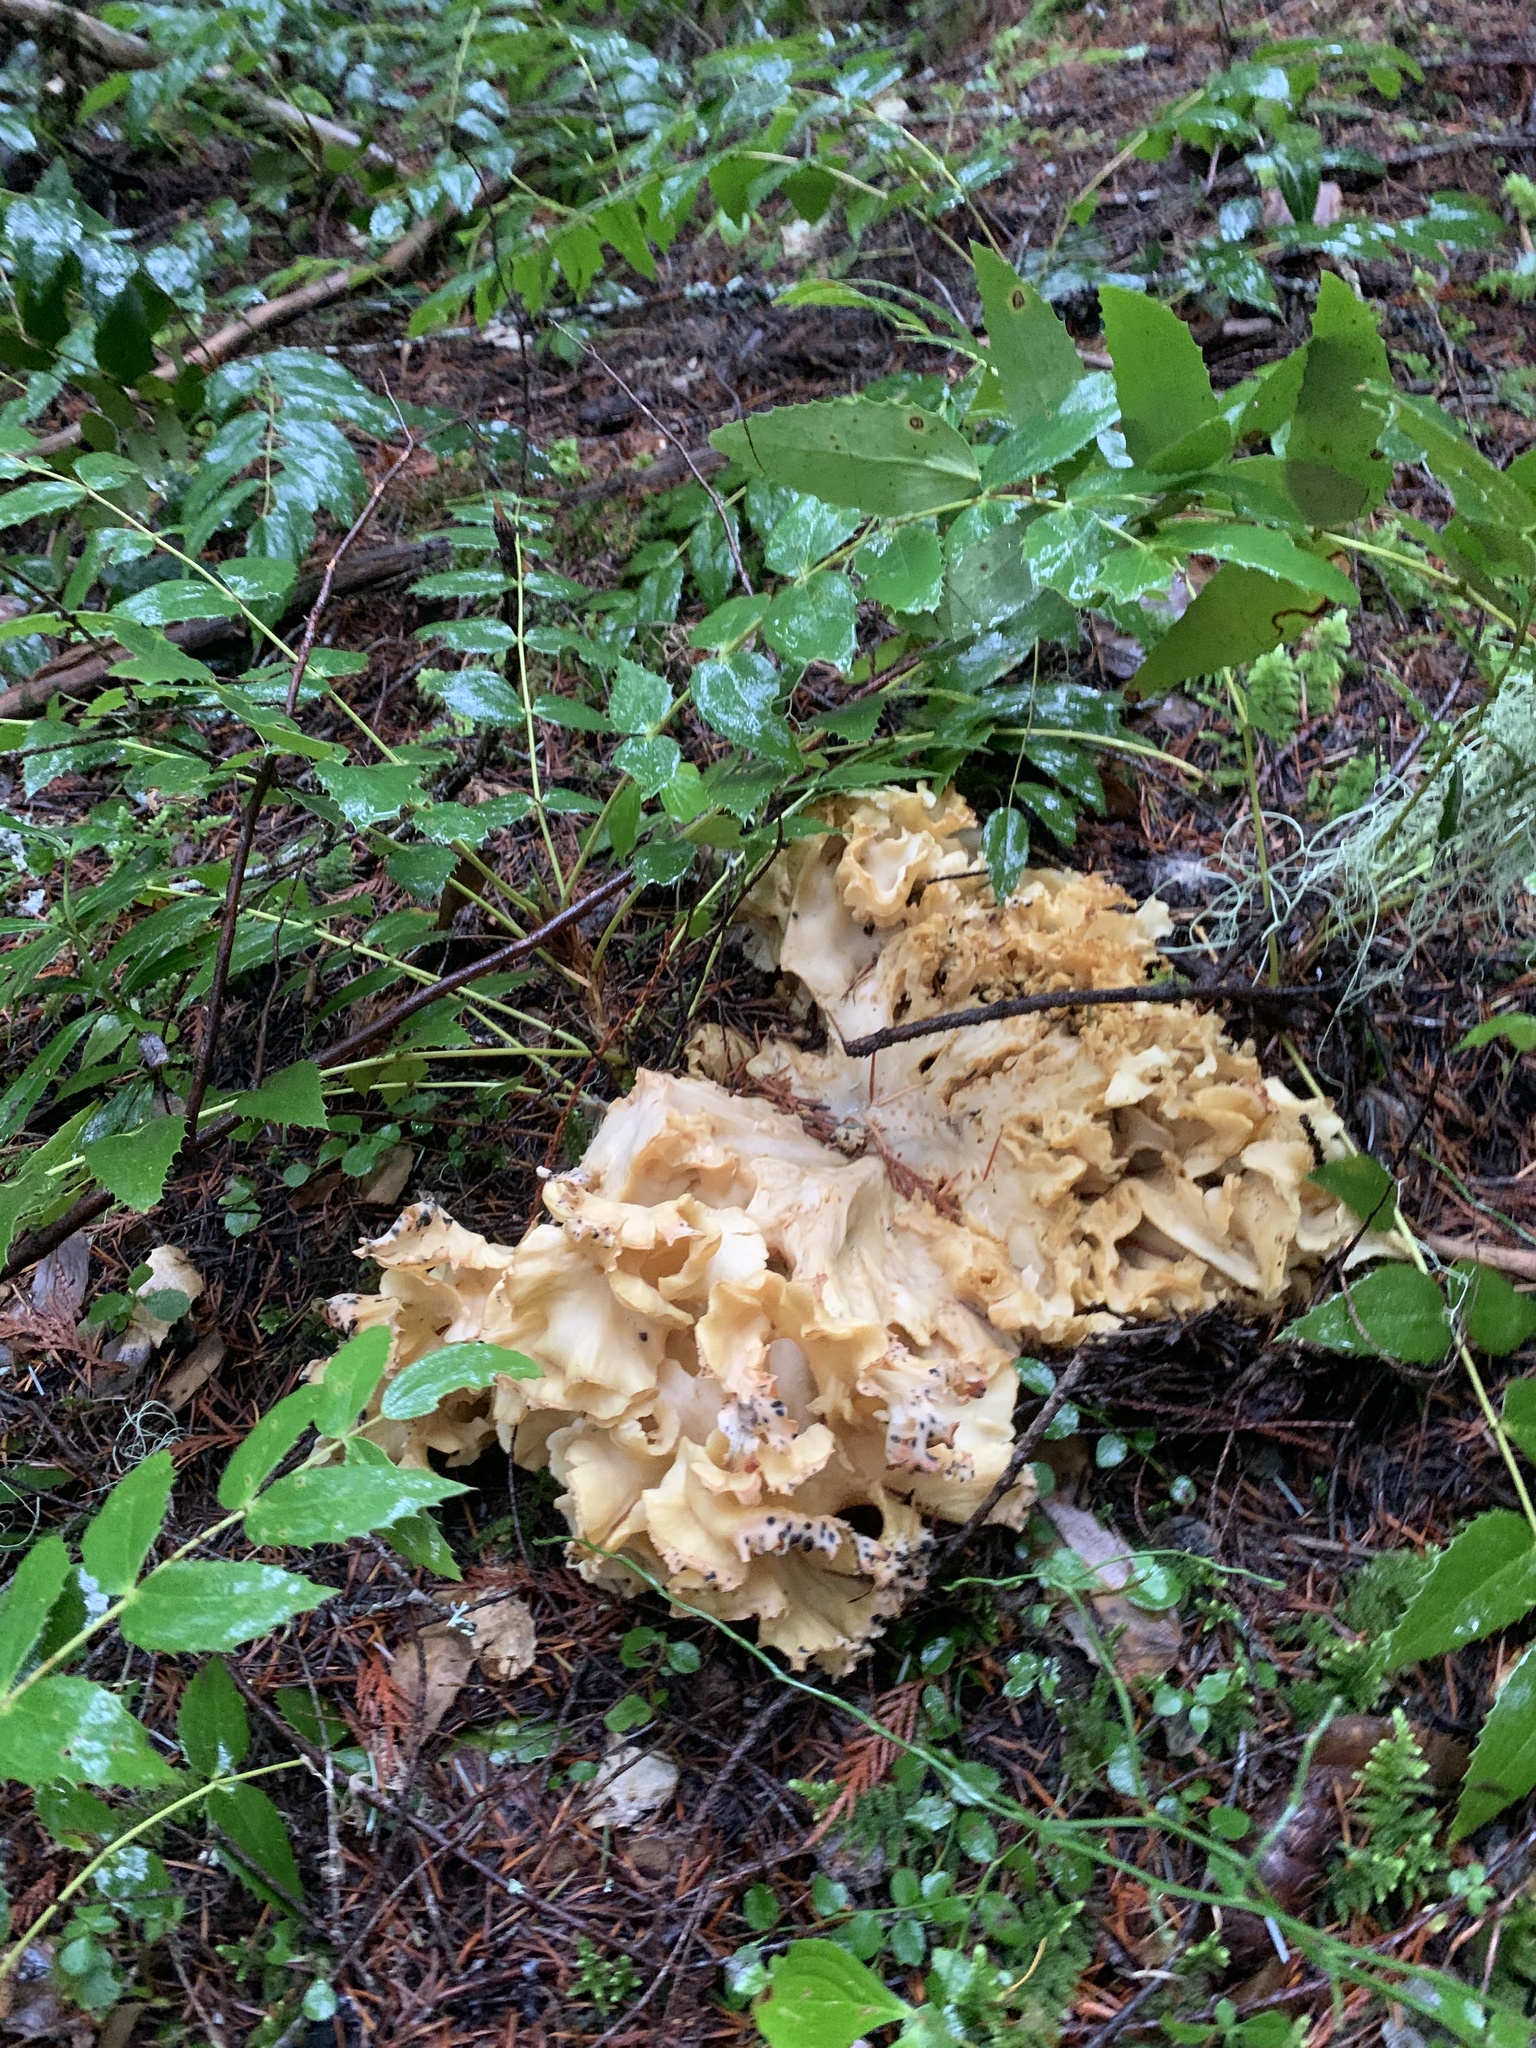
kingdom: Fungi
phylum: Basidiomycota
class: Agaricomycetes
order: Polyporales
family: Sparassidaceae
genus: Sparassis
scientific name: Sparassis radicata
